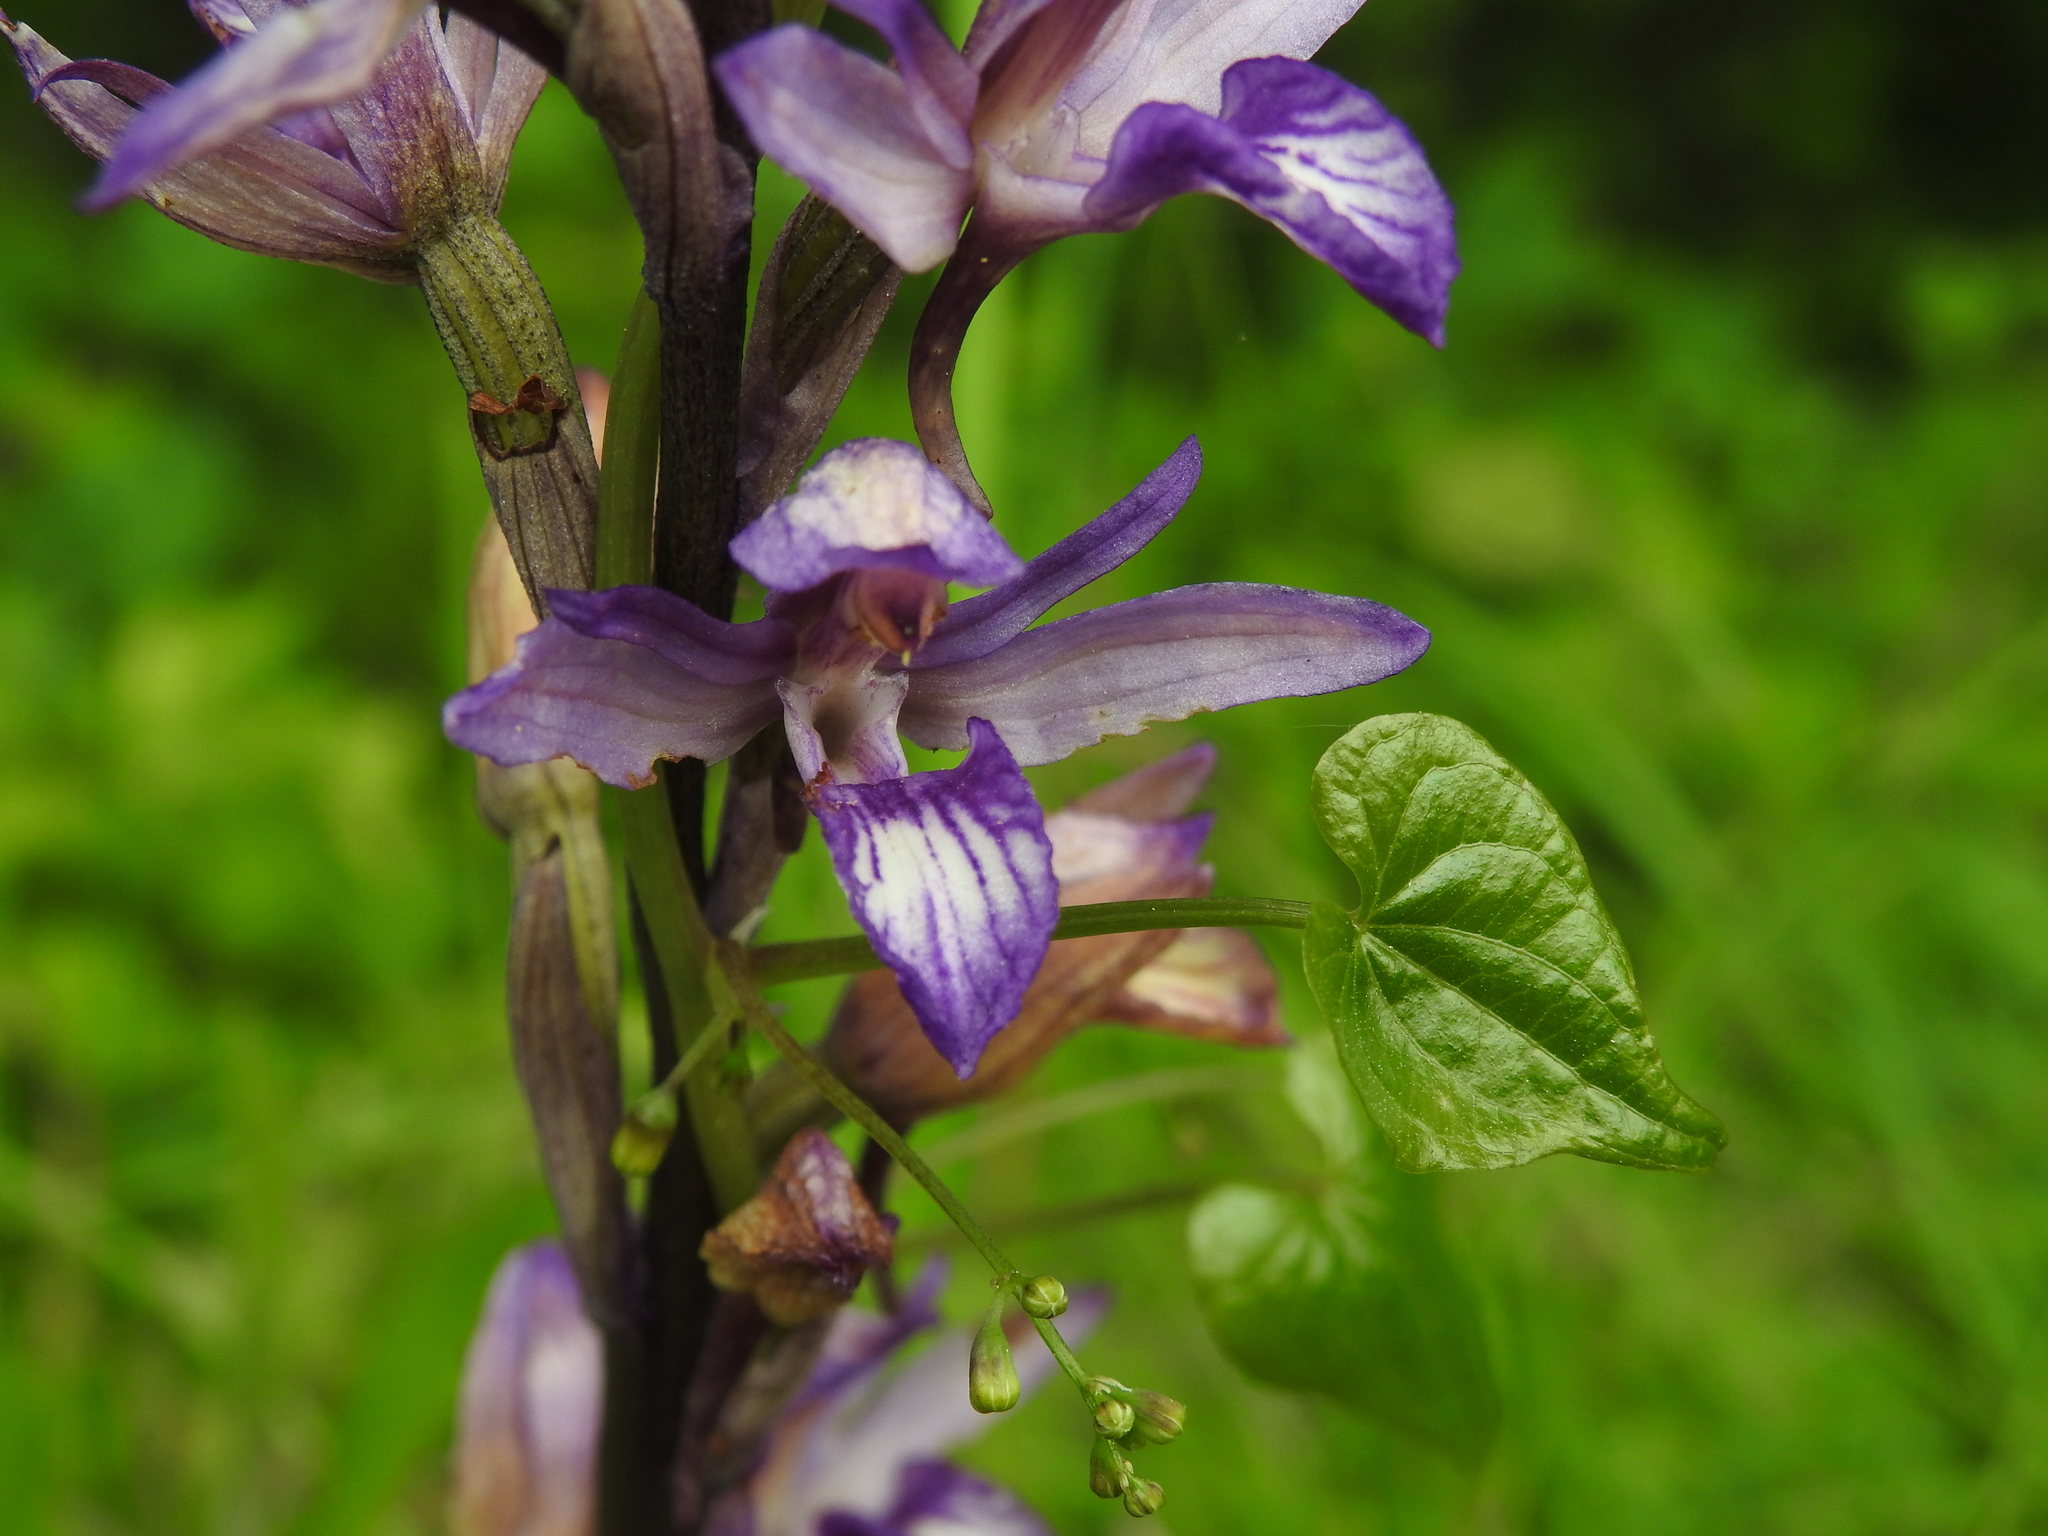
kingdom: Plantae
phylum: Tracheophyta
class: Liliopsida
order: Asparagales
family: Orchidaceae
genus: Limodorum
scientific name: Limodorum abortivum
